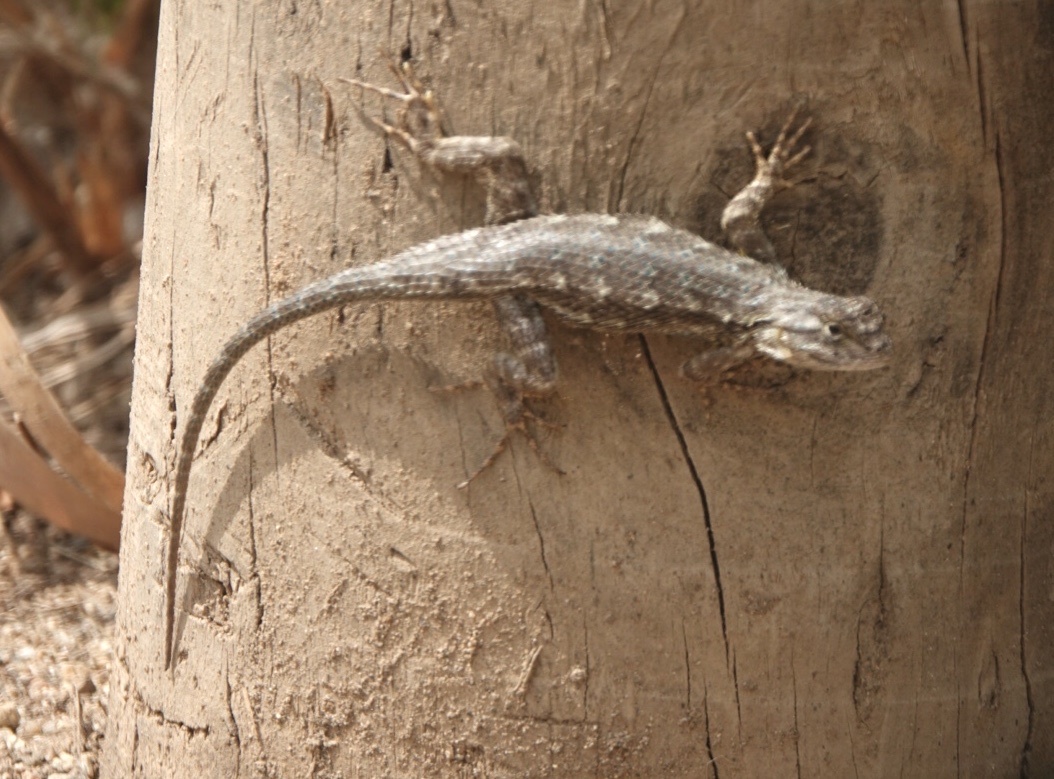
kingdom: Animalia
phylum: Chordata
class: Squamata
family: Phrynosomatidae
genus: Sceloporus
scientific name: Sceloporus occidentalis
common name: Western fence lizard
